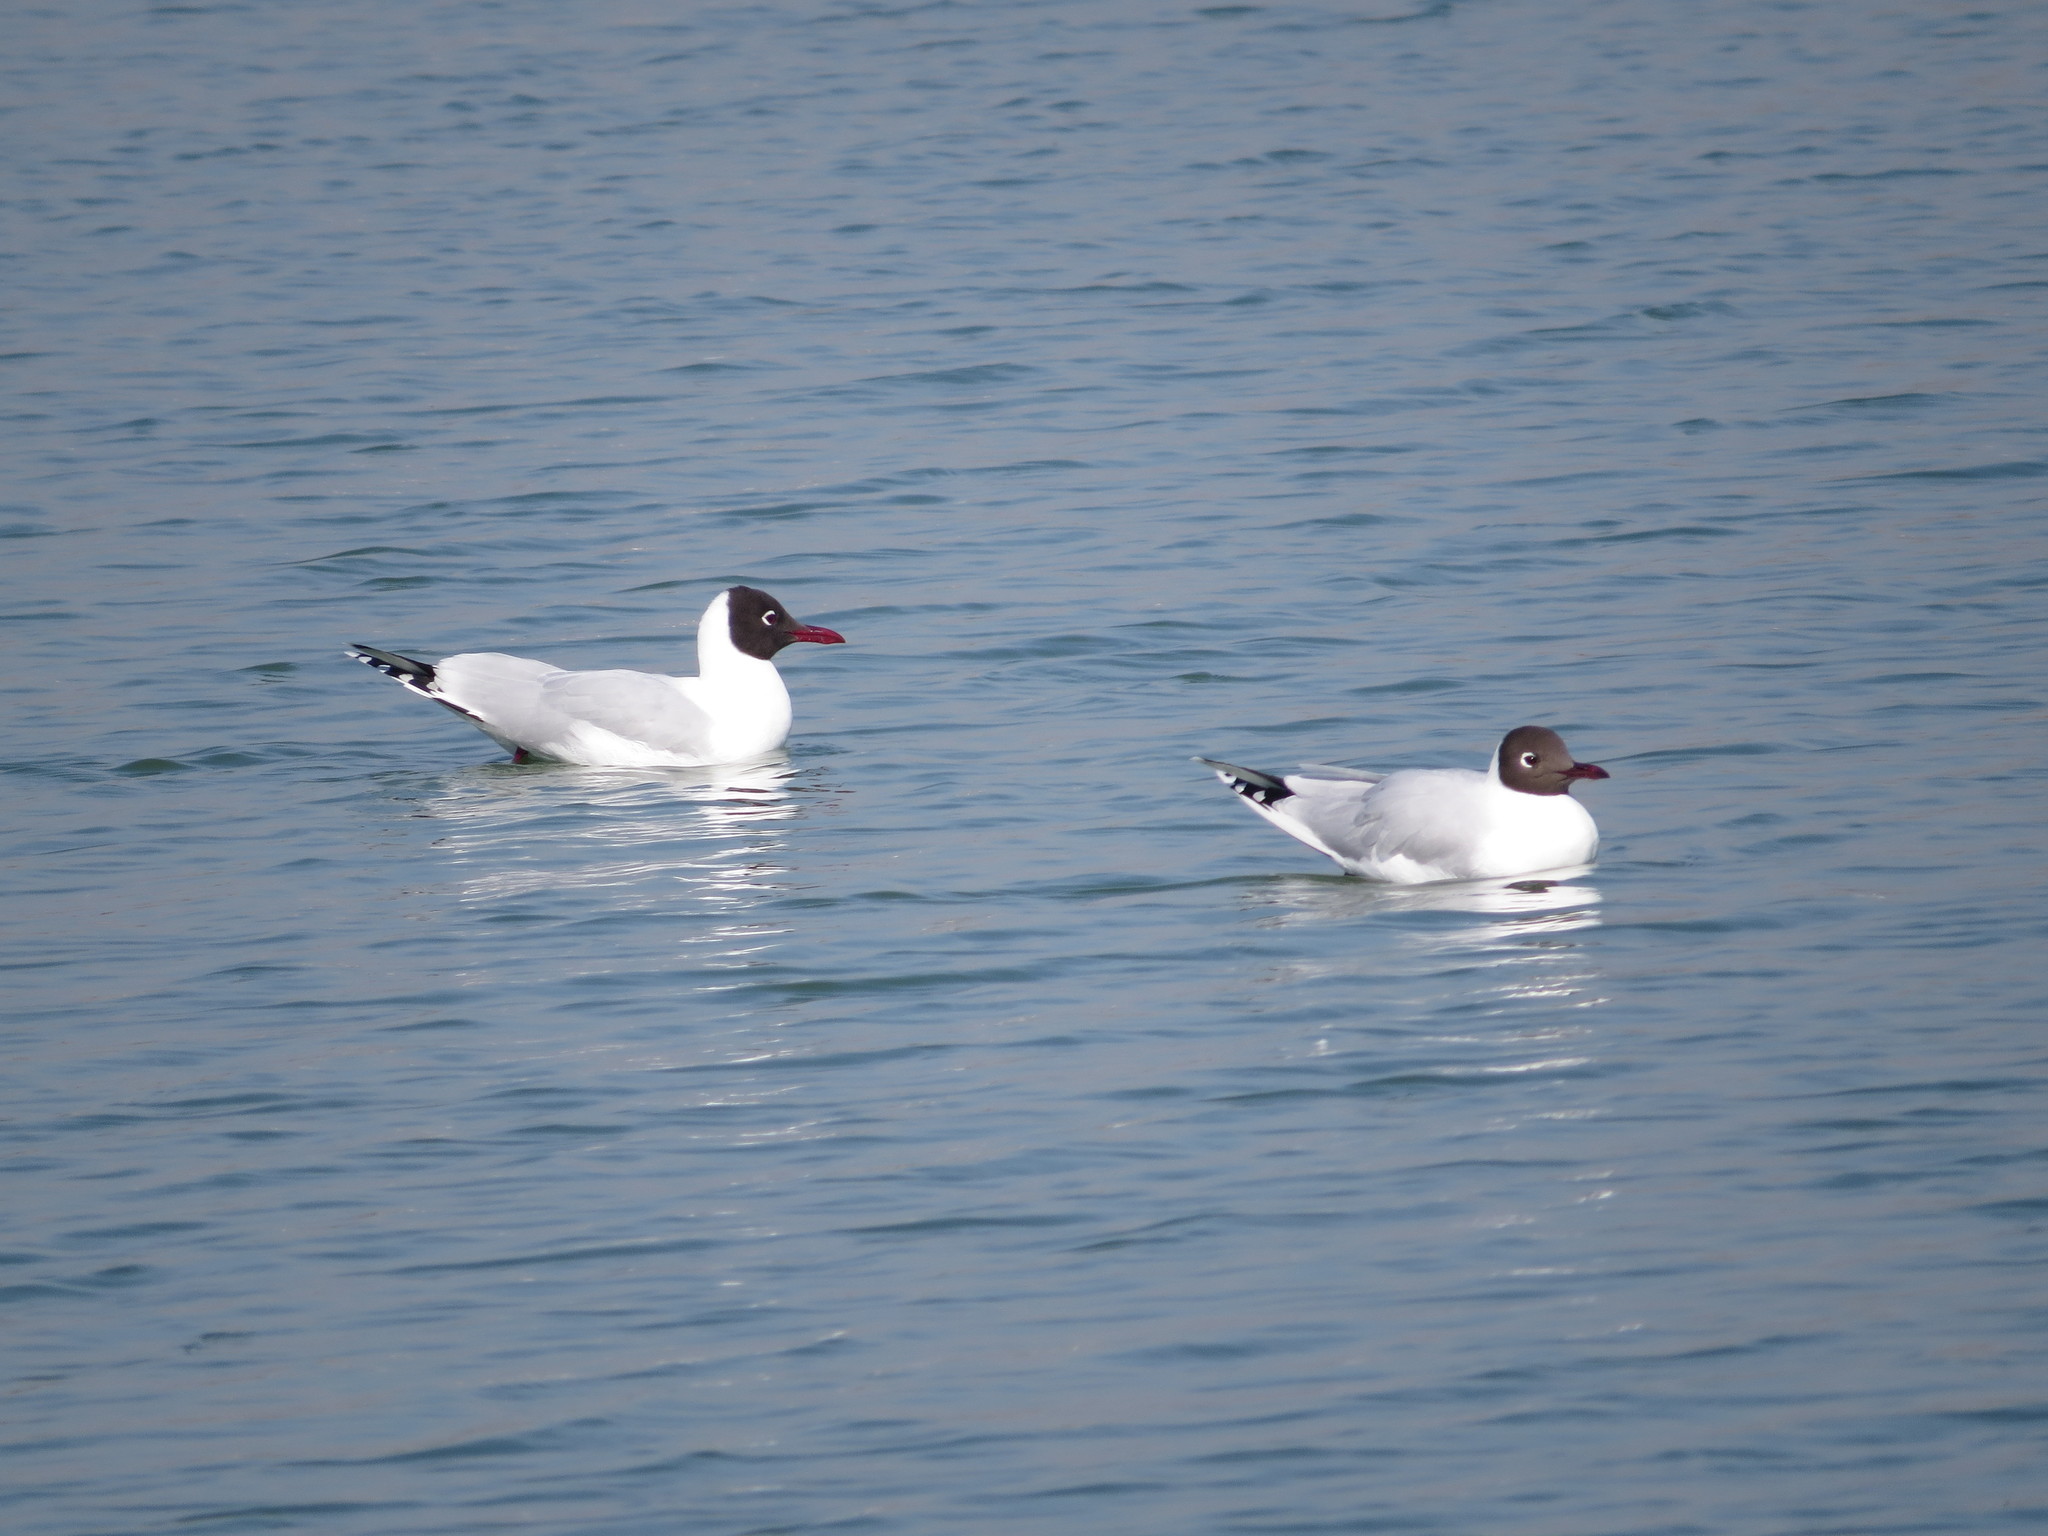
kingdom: Animalia
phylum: Chordata
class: Aves
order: Charadriiformes
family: Laridae
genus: Chroicocephalus
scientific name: Chroicocephalus maculipennis
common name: Brown-hooded gull
